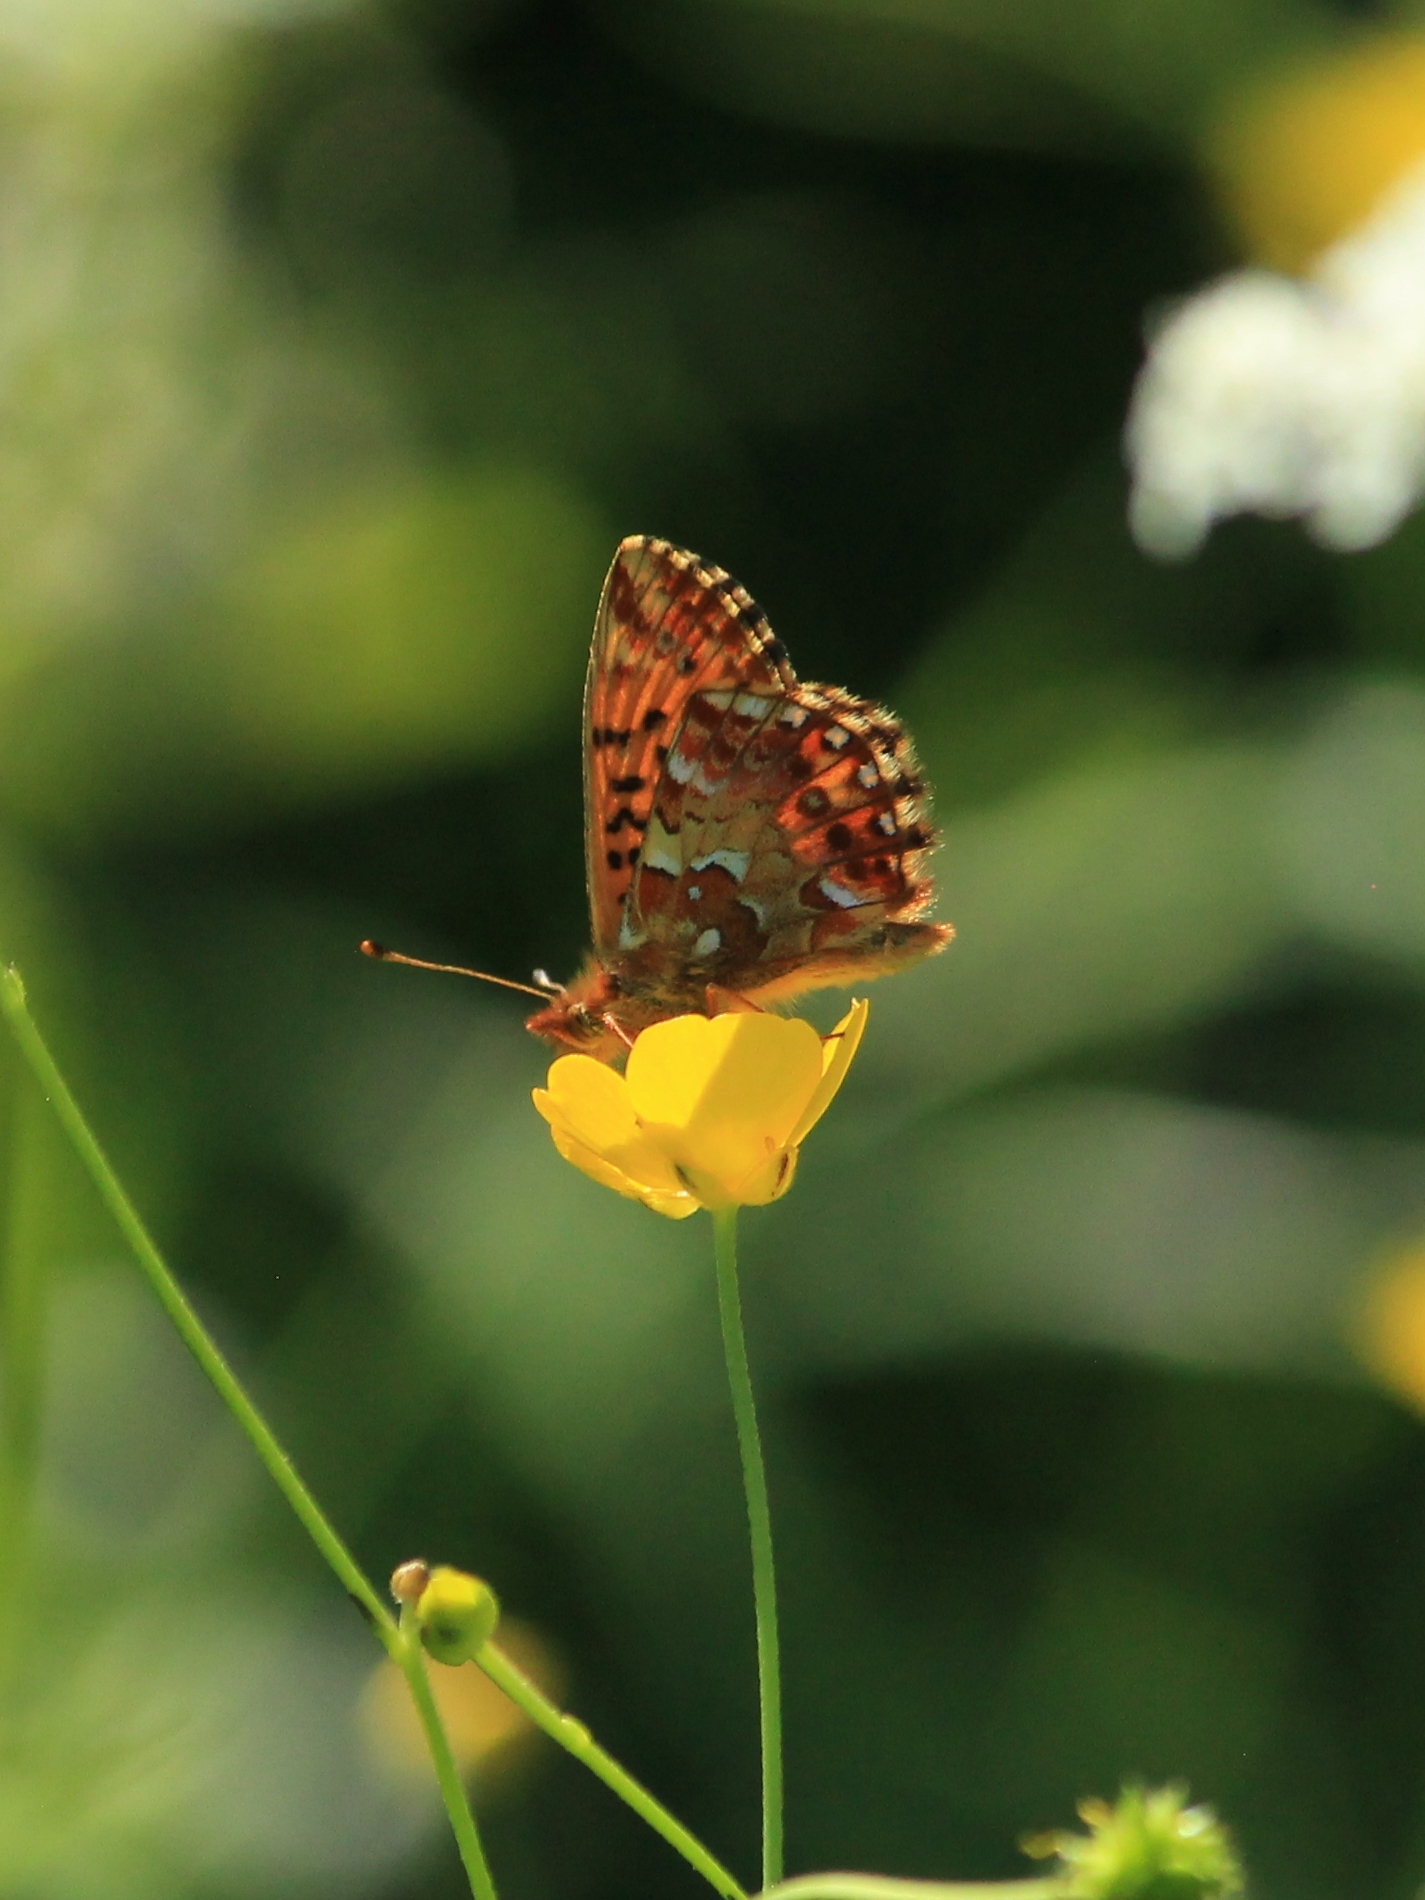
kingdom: Animalia
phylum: Arthropoda
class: Insecta
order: Lepidoptera
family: Nymphalidae
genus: Boloria
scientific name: Boloria aquilonaris
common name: Cranberry fritillary
